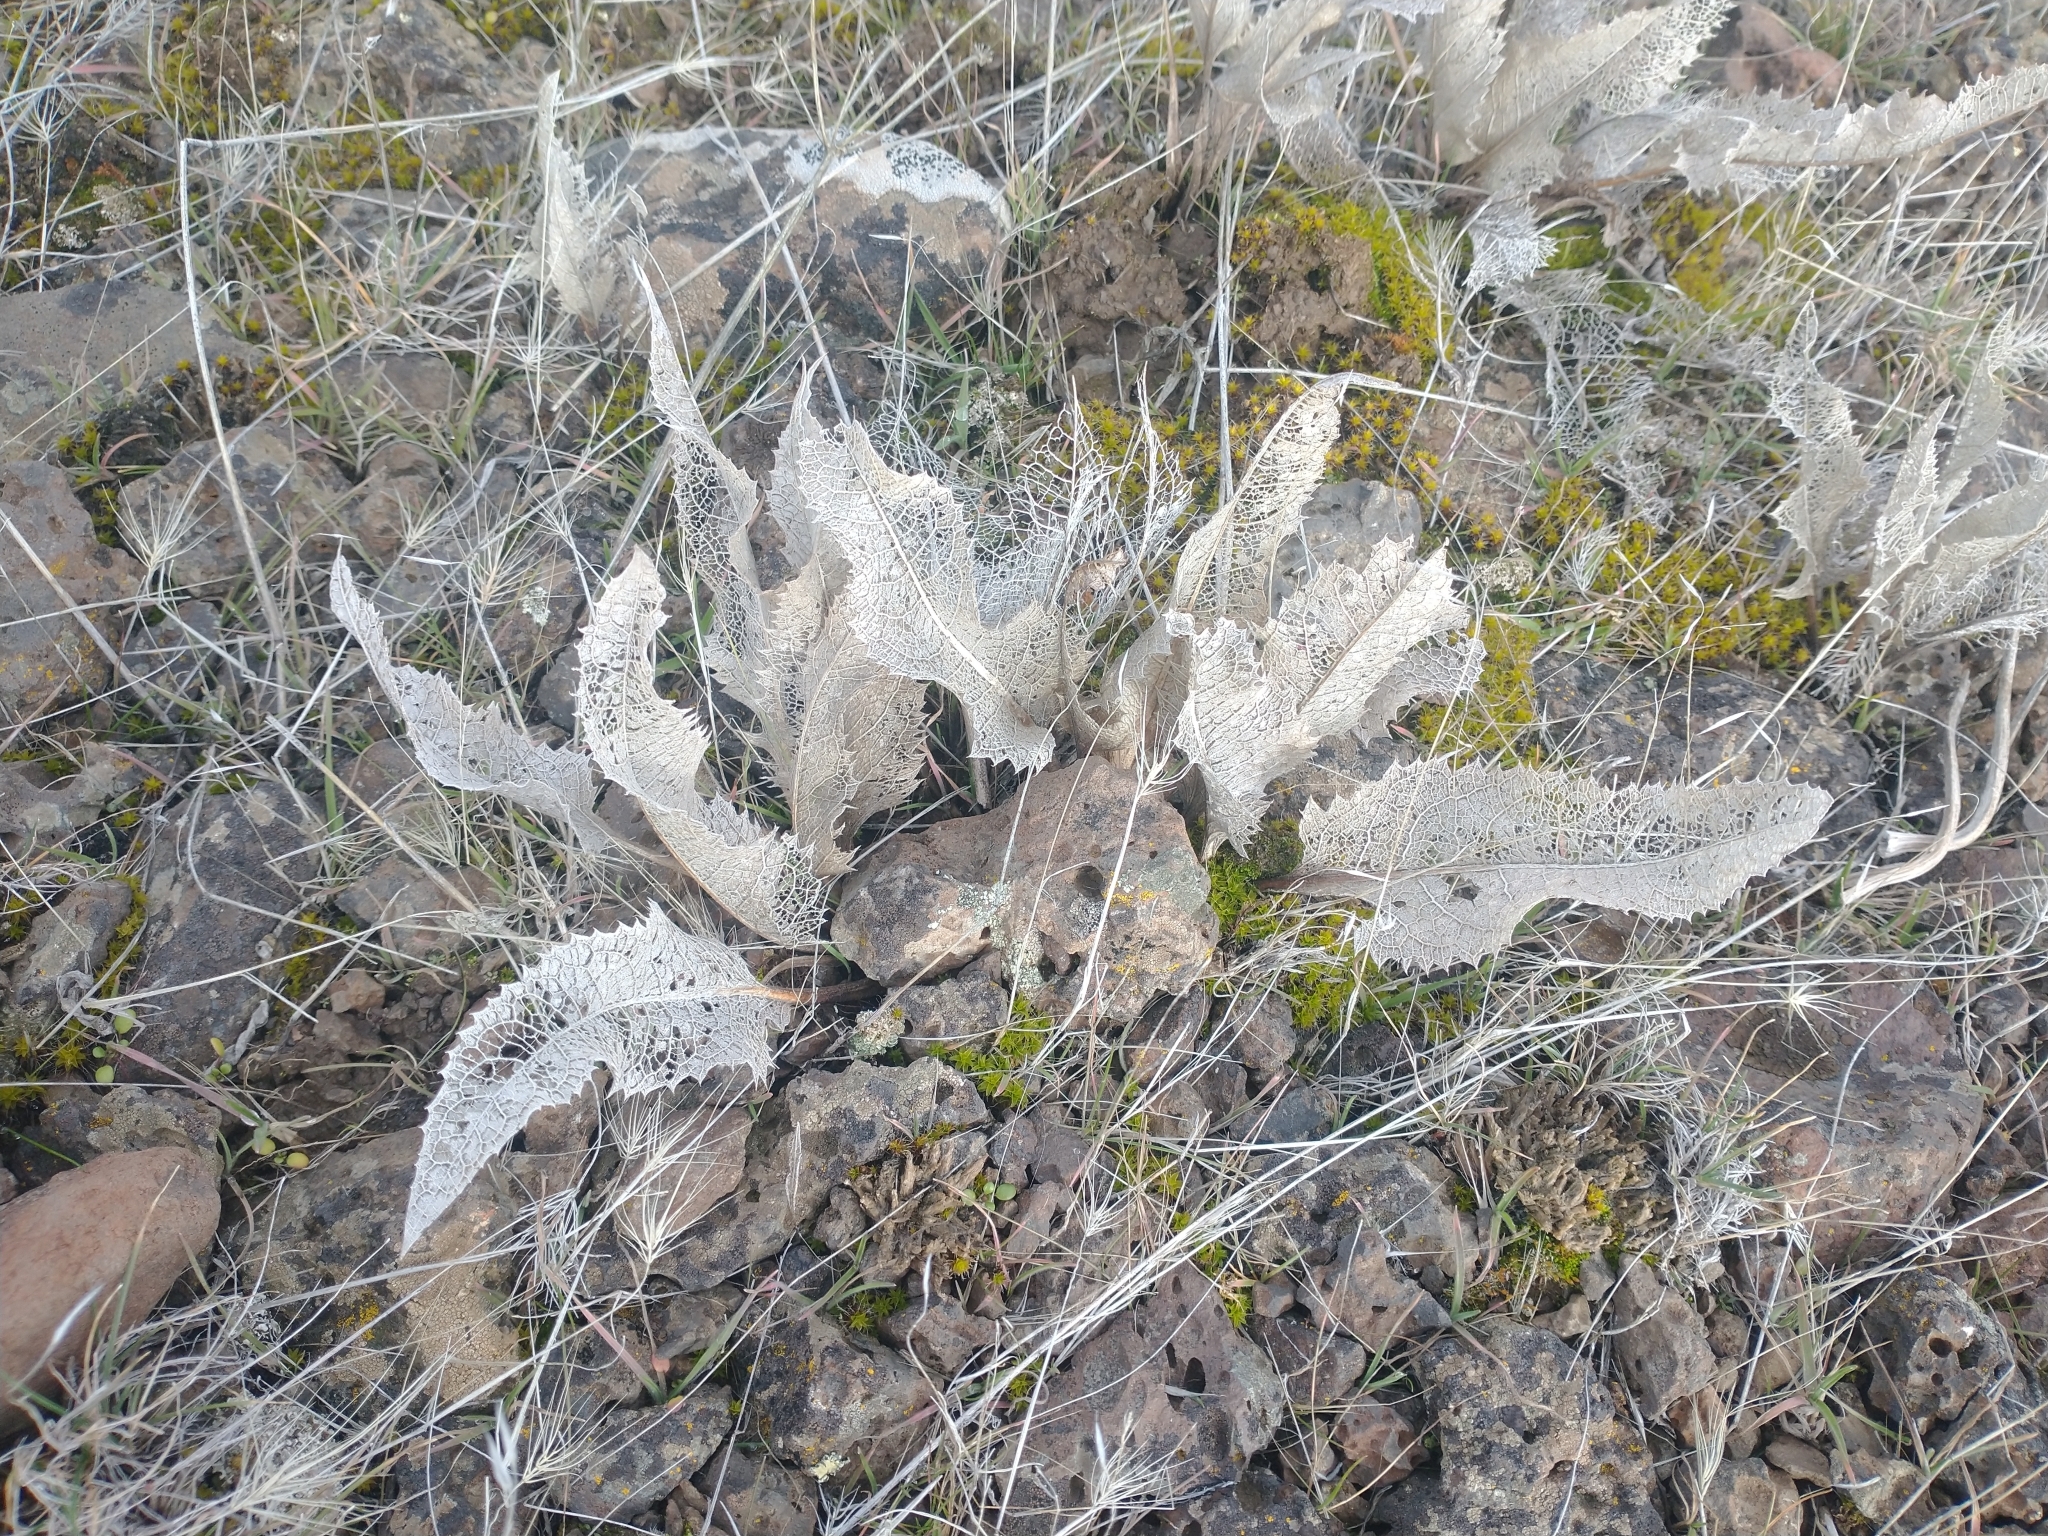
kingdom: Plantae
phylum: Tracheophyta
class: Magnoliopsida
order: Asterales
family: Asteraceae
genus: Balsamorhiza
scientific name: Balsamorhiza serrata
